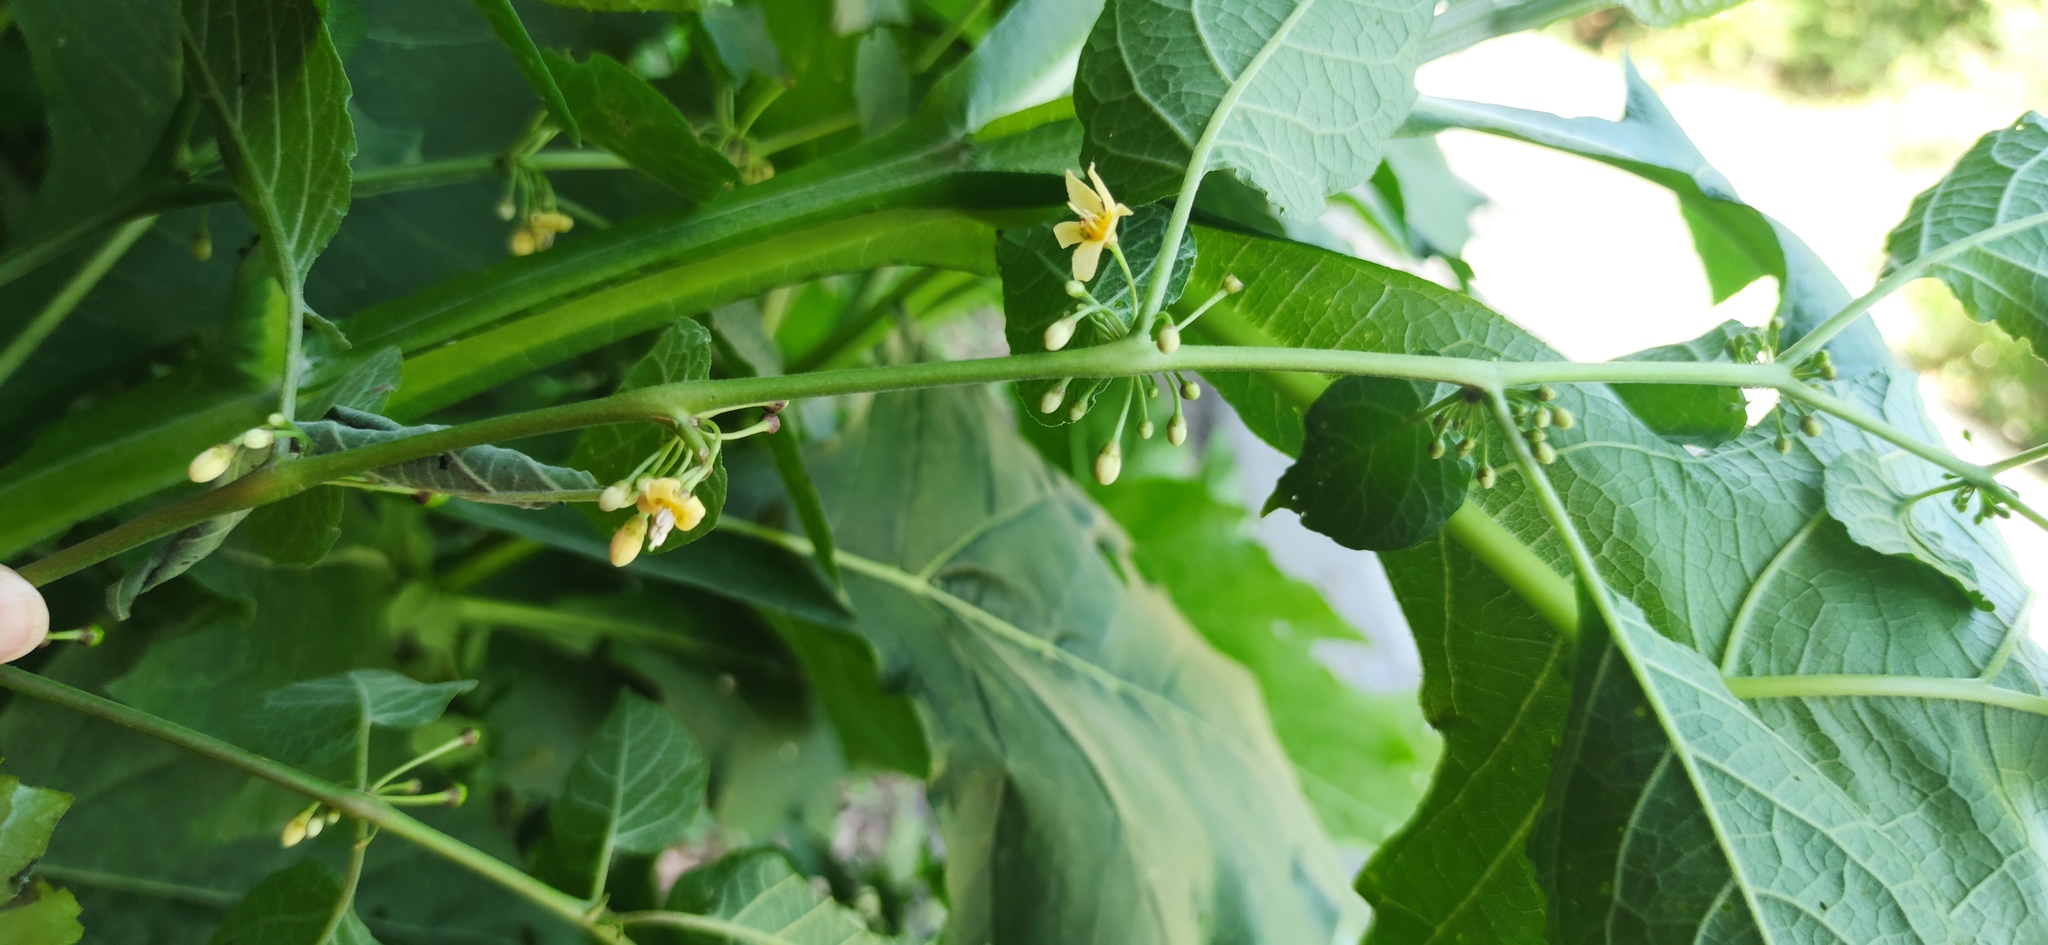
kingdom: Plantae
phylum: Tracheophyta
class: Magnoliopsida
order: Solanales
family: Solanaceae
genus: Witheringia
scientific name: Witheringia mexicana
